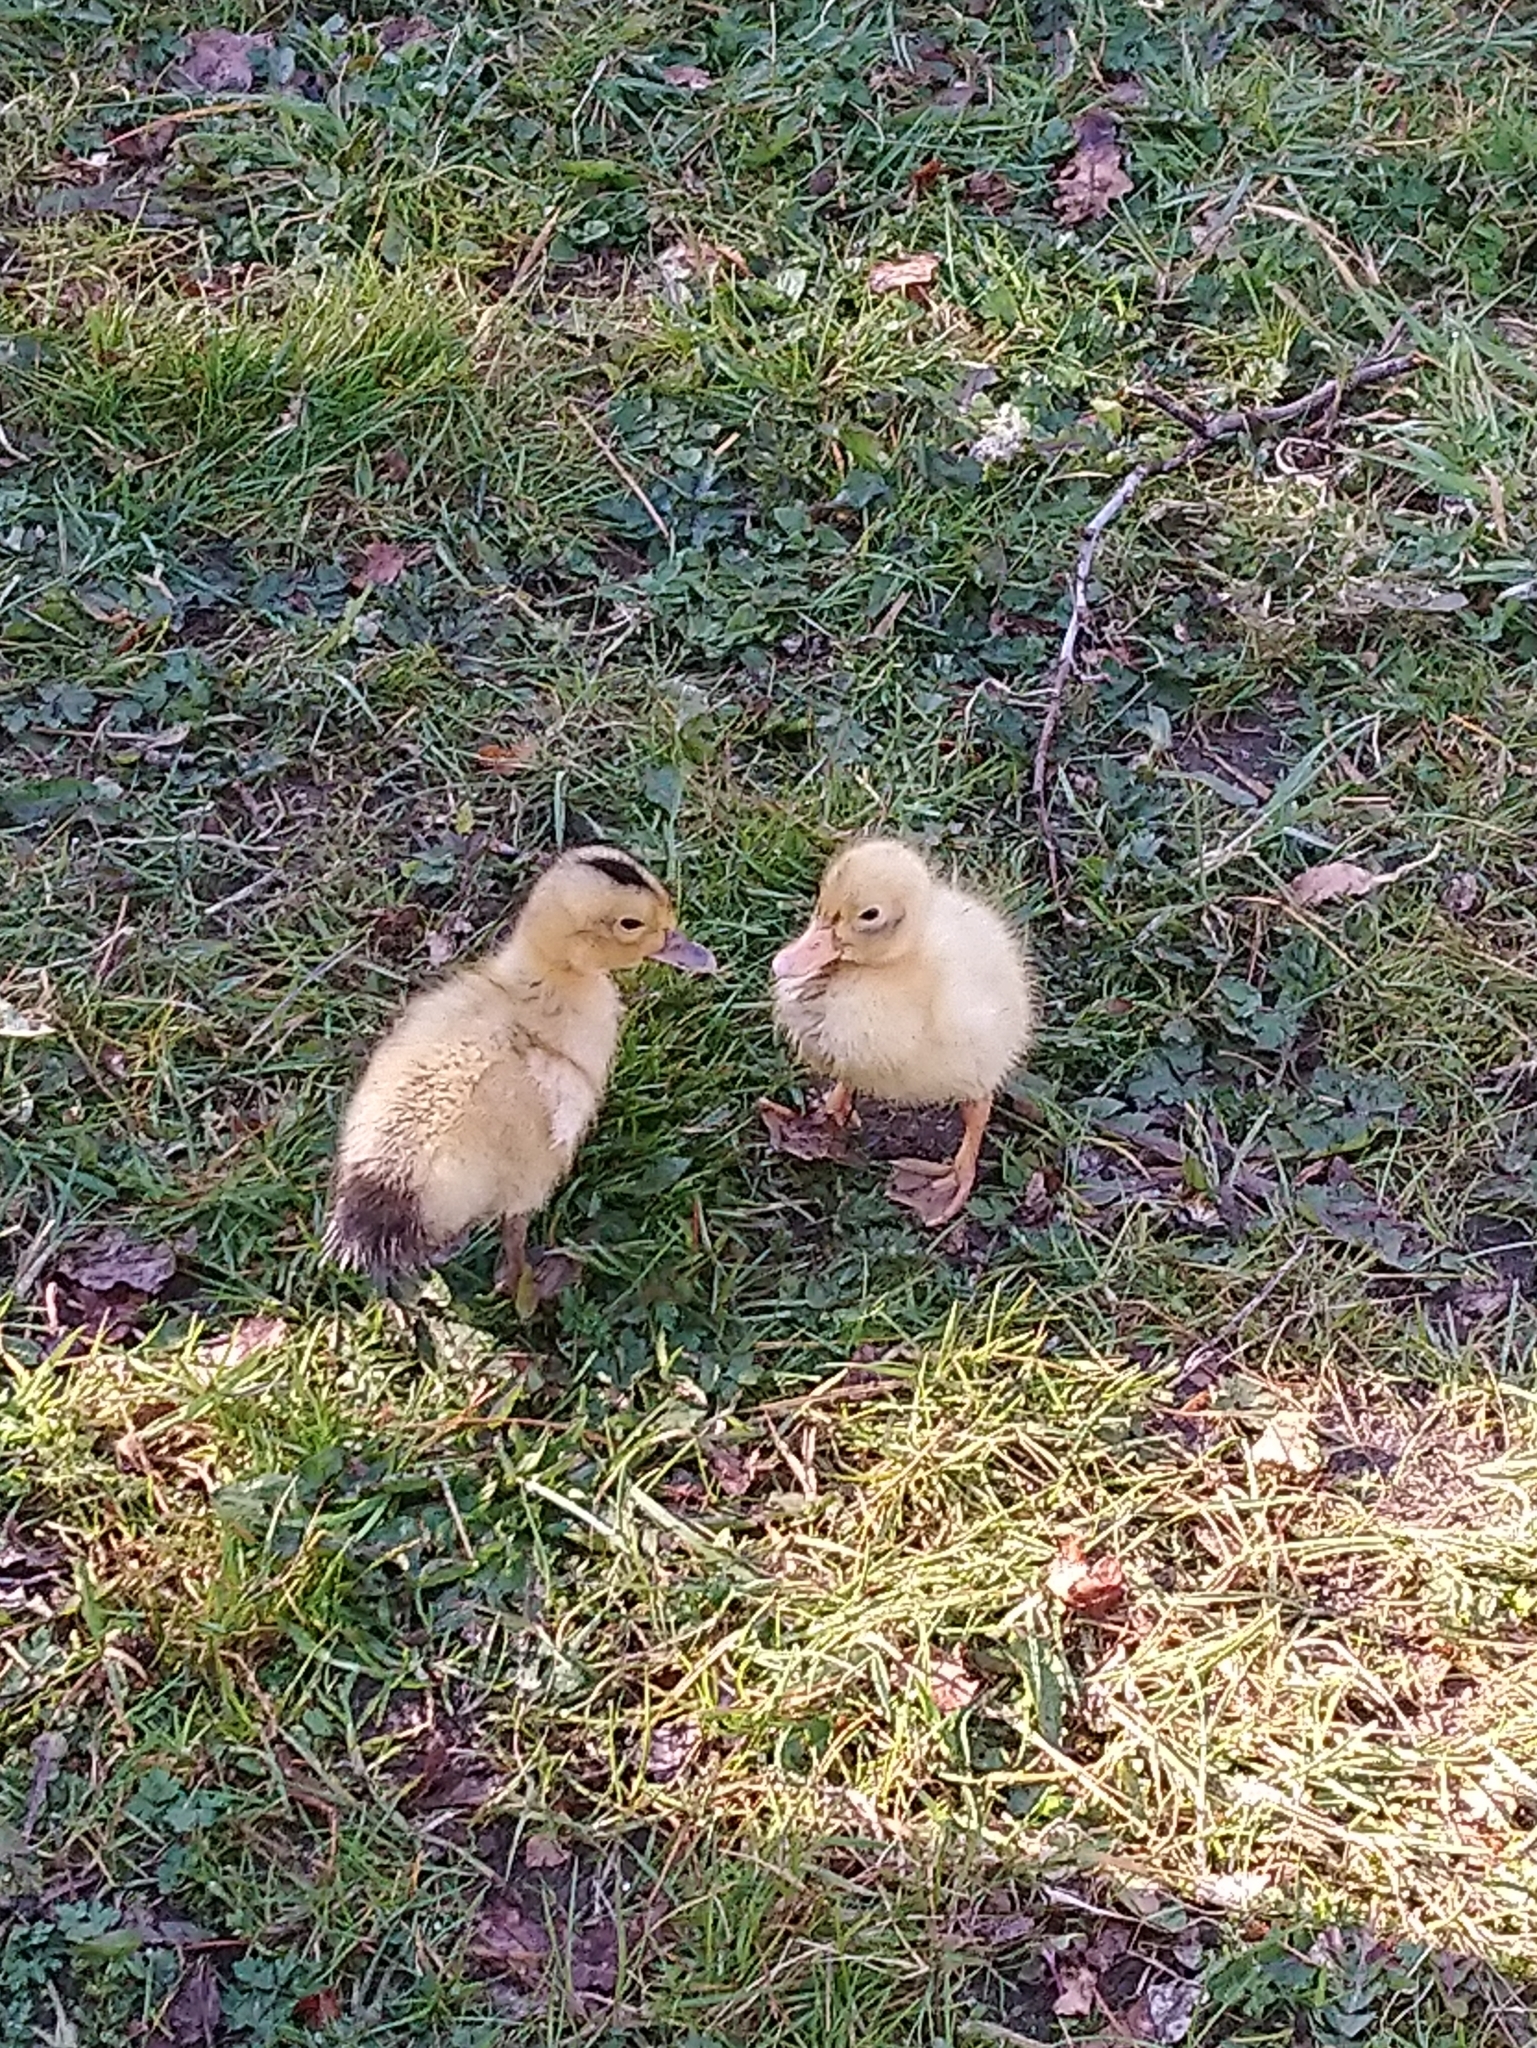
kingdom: Animalia
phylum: Chordata
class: Aves
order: Anseriformes
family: Anatidae
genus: Anas
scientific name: Anas platyrhynchos
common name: Mallard
